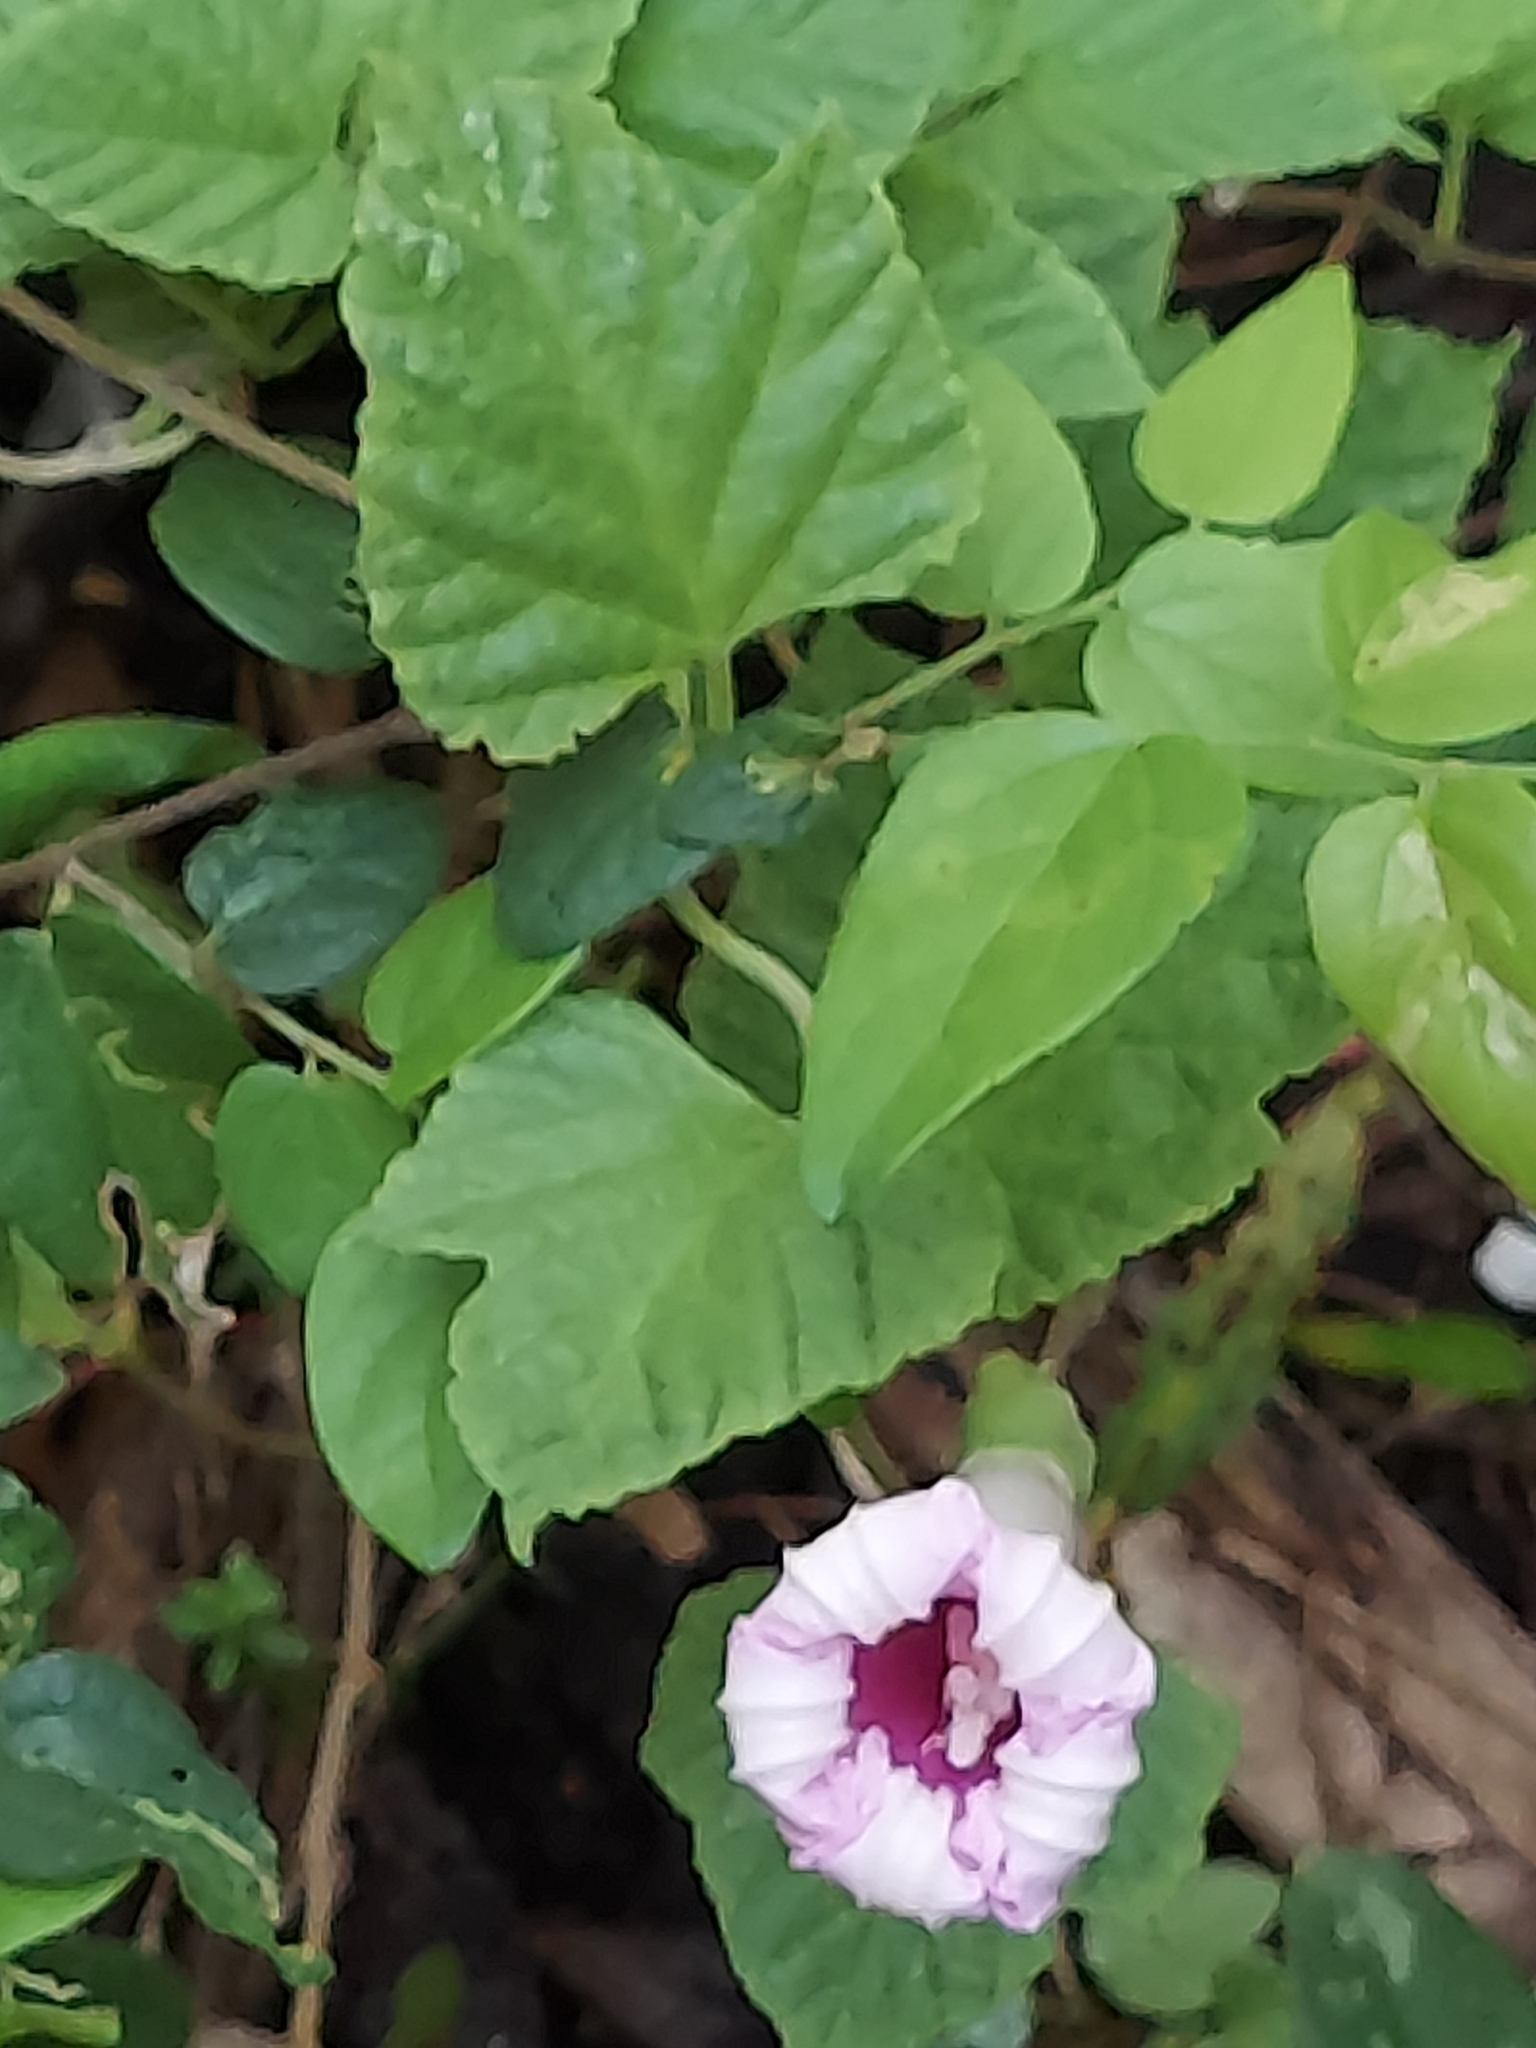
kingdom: Plantae
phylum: Tracheophyta
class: Magnoliopsida
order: Solanales
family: Convolvulaceae
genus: Ipomoea
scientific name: Ipomoea macrorhiza
